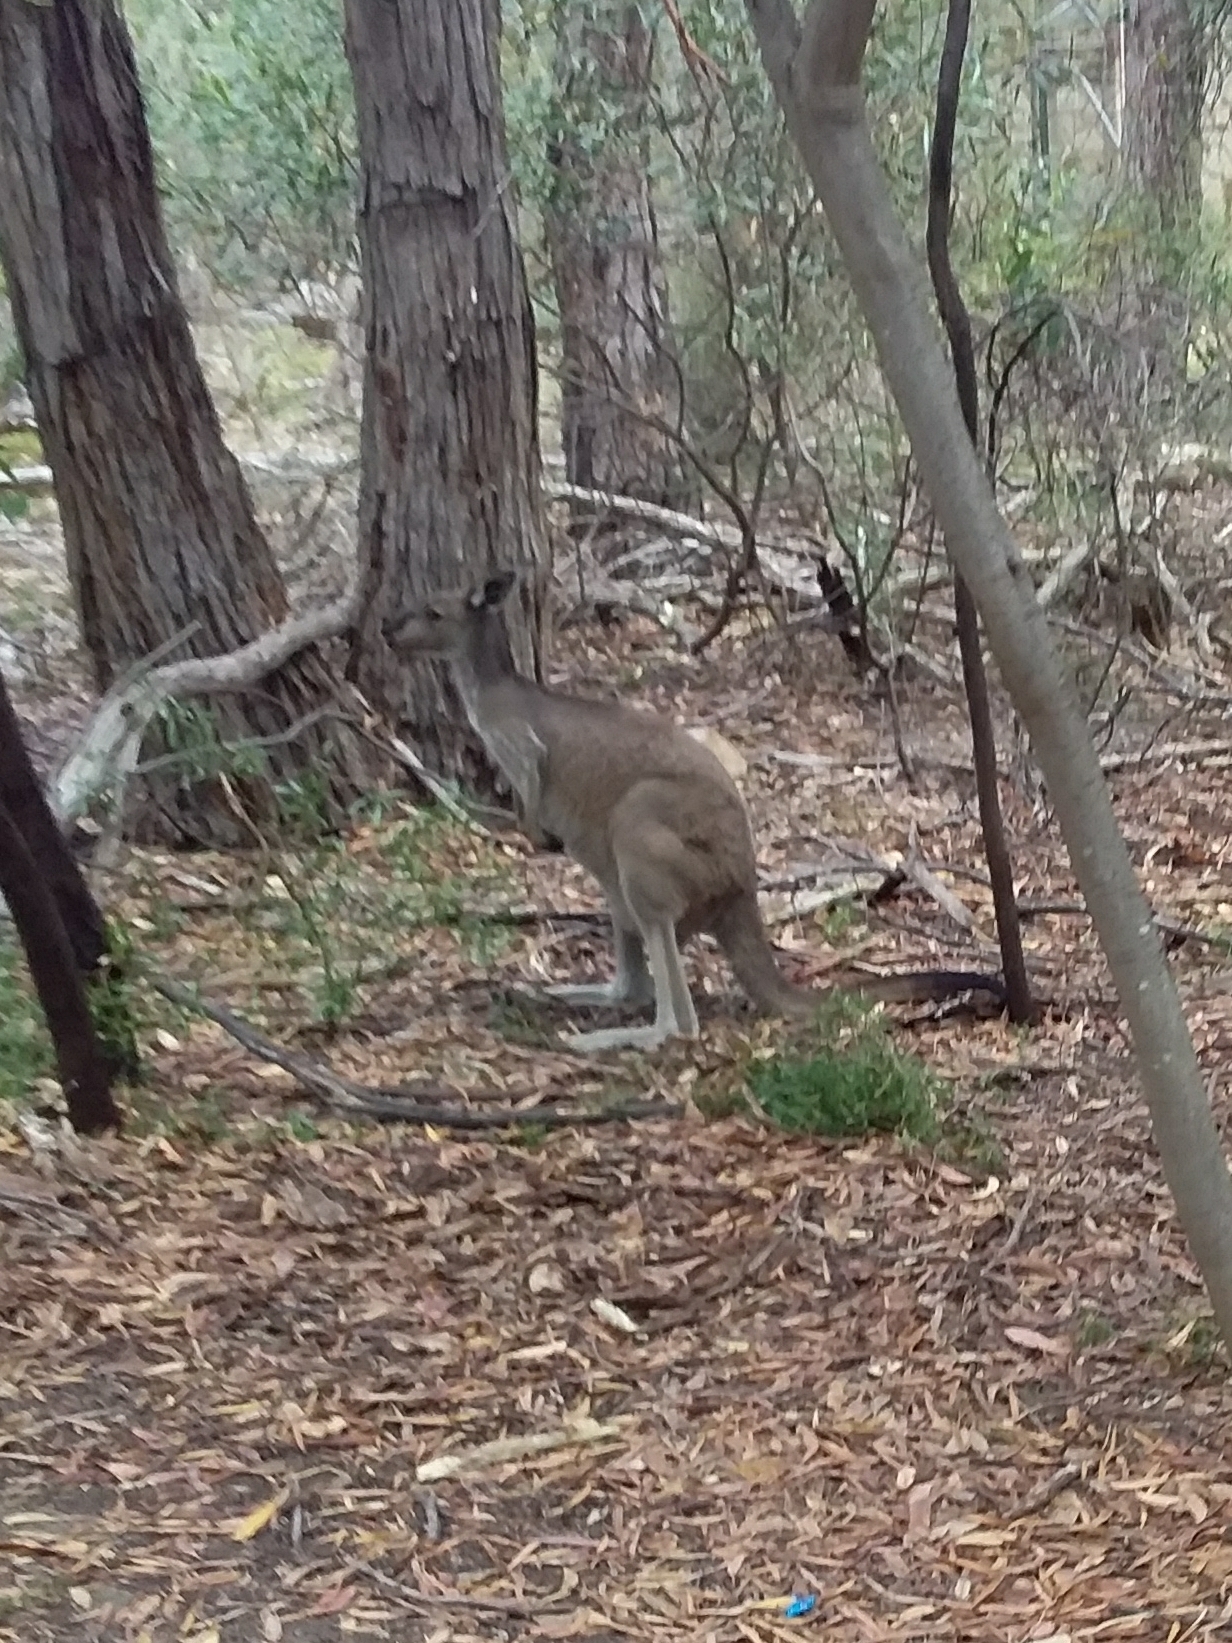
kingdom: Animalia
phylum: Chordata
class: Mammalia
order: Diprotodontia
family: Macropodidae
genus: Macropus
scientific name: Macropus fuliginosus
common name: Western grey kangaroo
